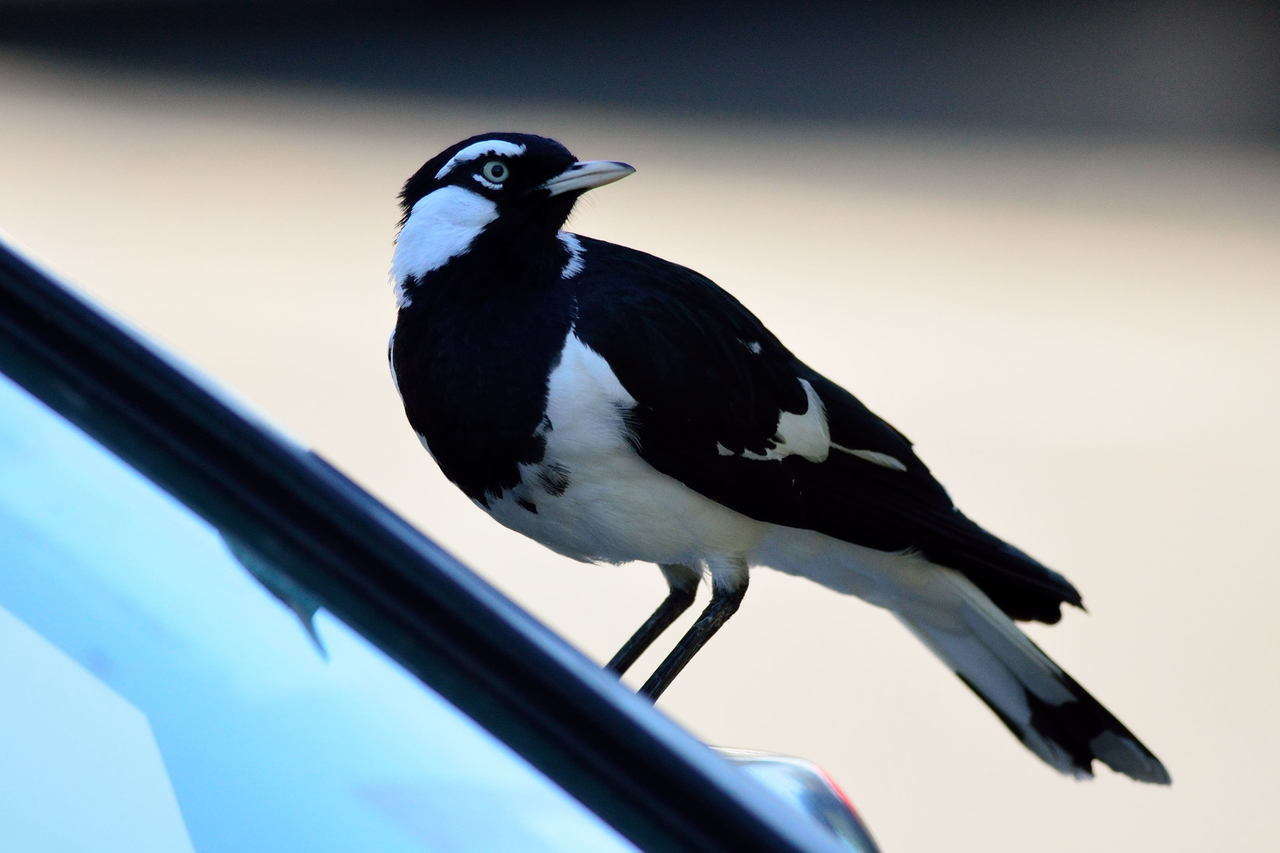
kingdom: Animalia
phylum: Chordata
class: Aves
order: Passeriformes
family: Monarchidae
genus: Grallina
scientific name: Grallina cyanoleuca
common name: Magpie-lark
